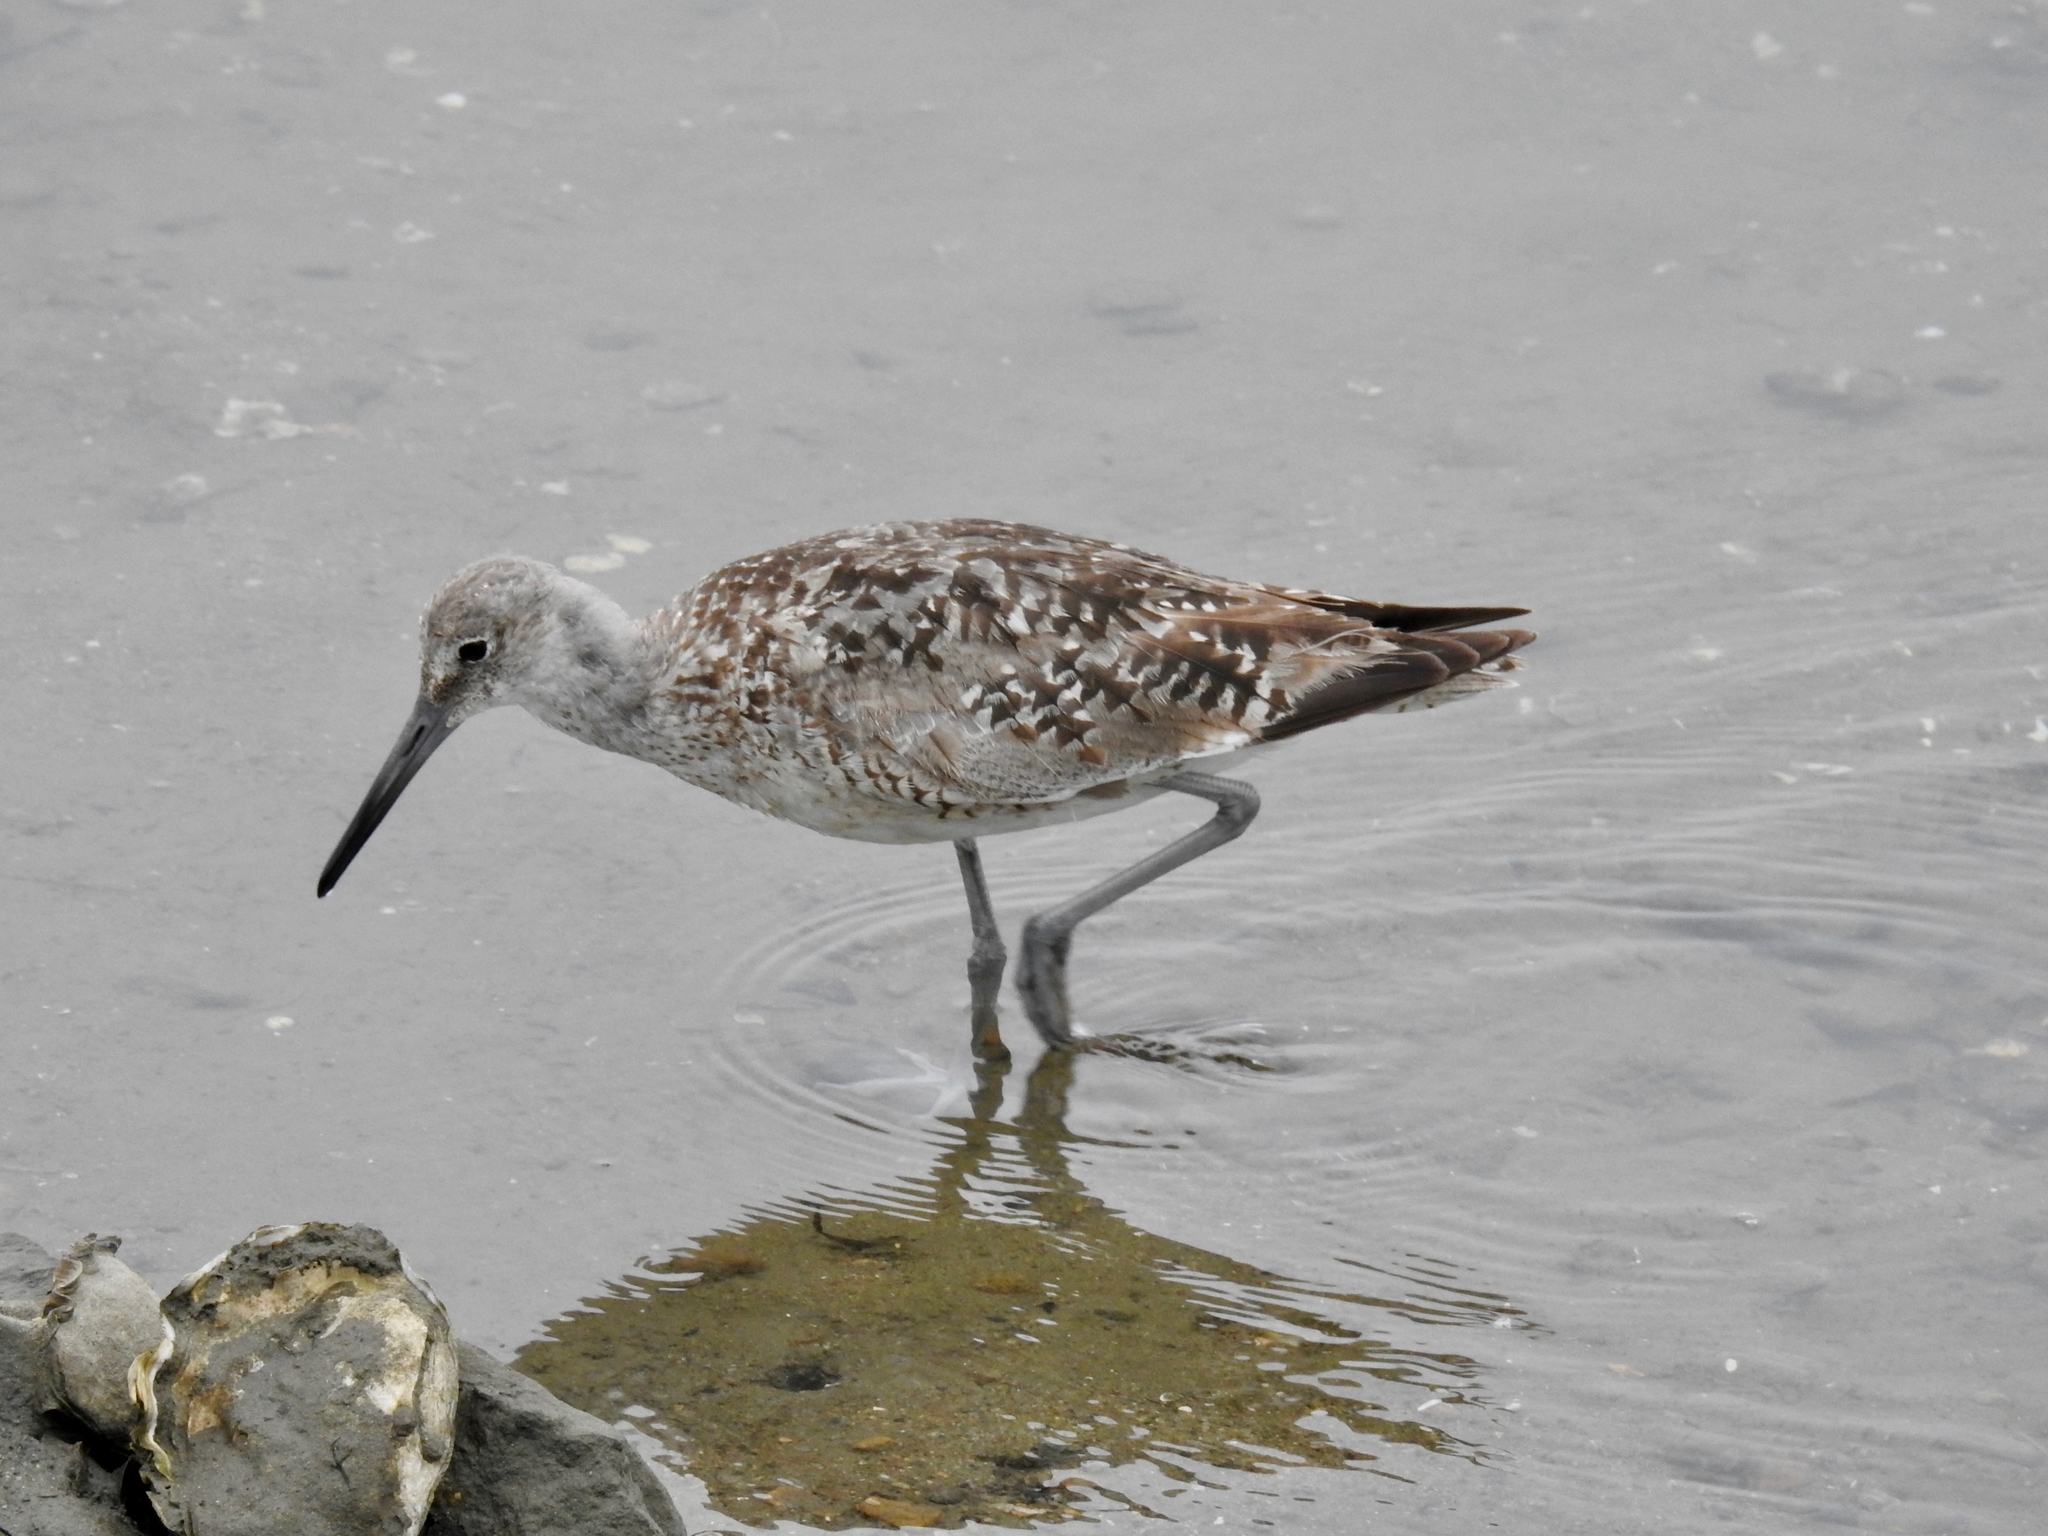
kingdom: Animalia
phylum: Chordata
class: Aves
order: Charadriiformes
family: Scolopacidae
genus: Tringa
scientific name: Tringa semipalmata
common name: Willet
